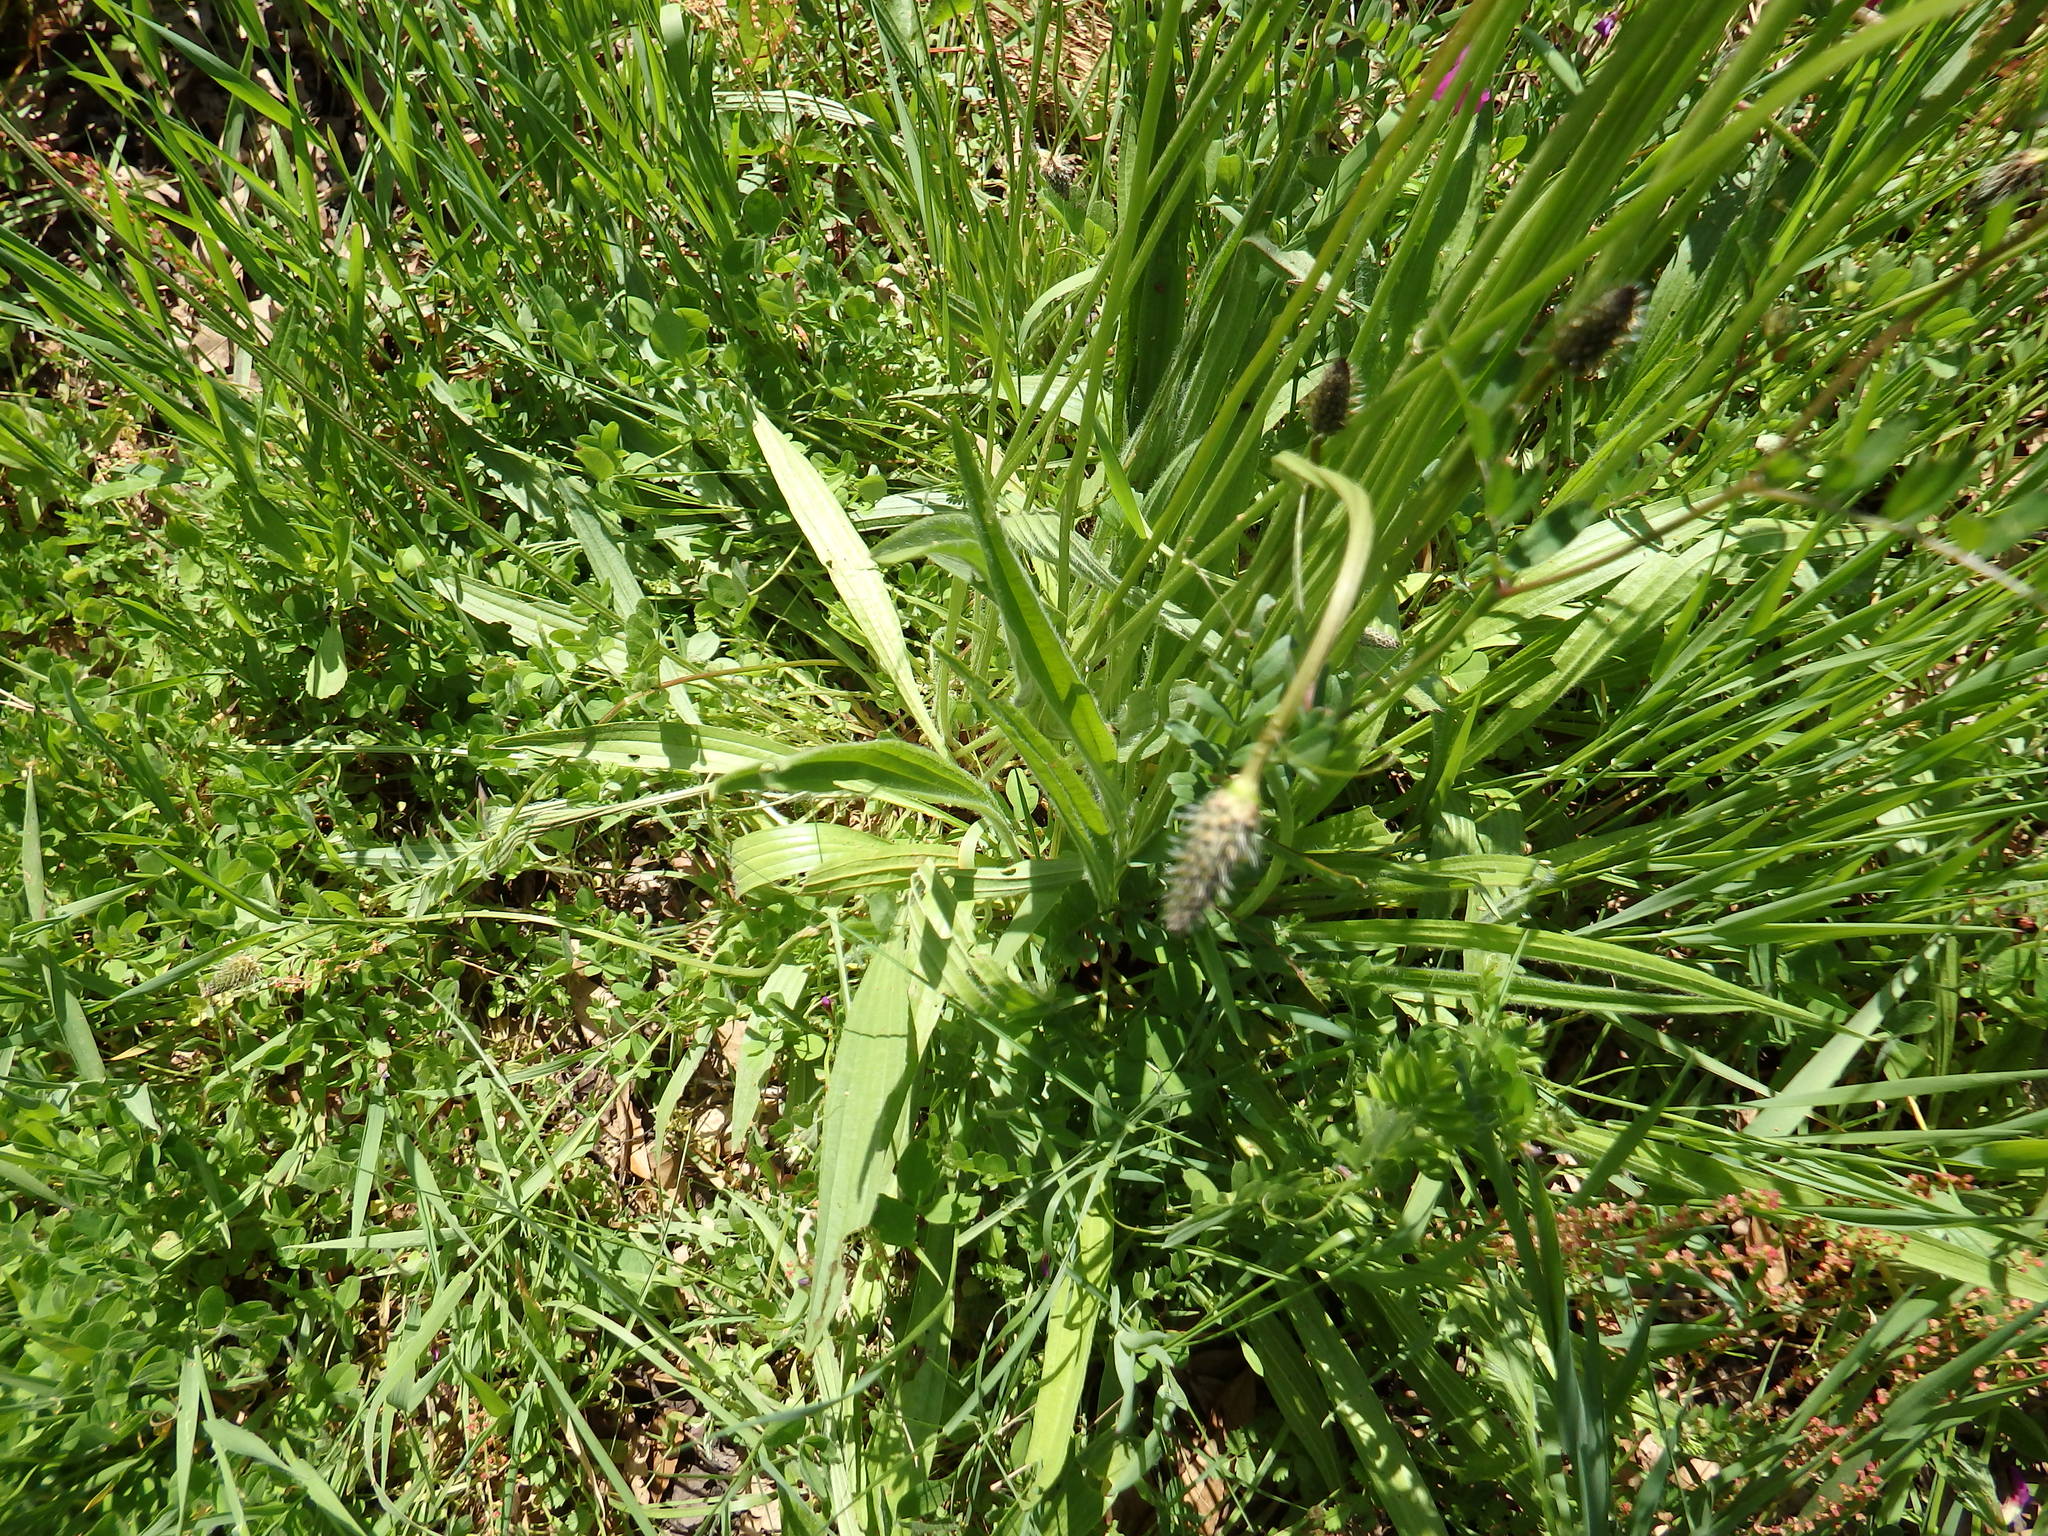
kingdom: Plantae
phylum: Tracheophyta
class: Magnoliopsida
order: Lamiales
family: Plantaginaceae
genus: Plantago
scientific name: Plantago lanceolata
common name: Ribwort plantain
